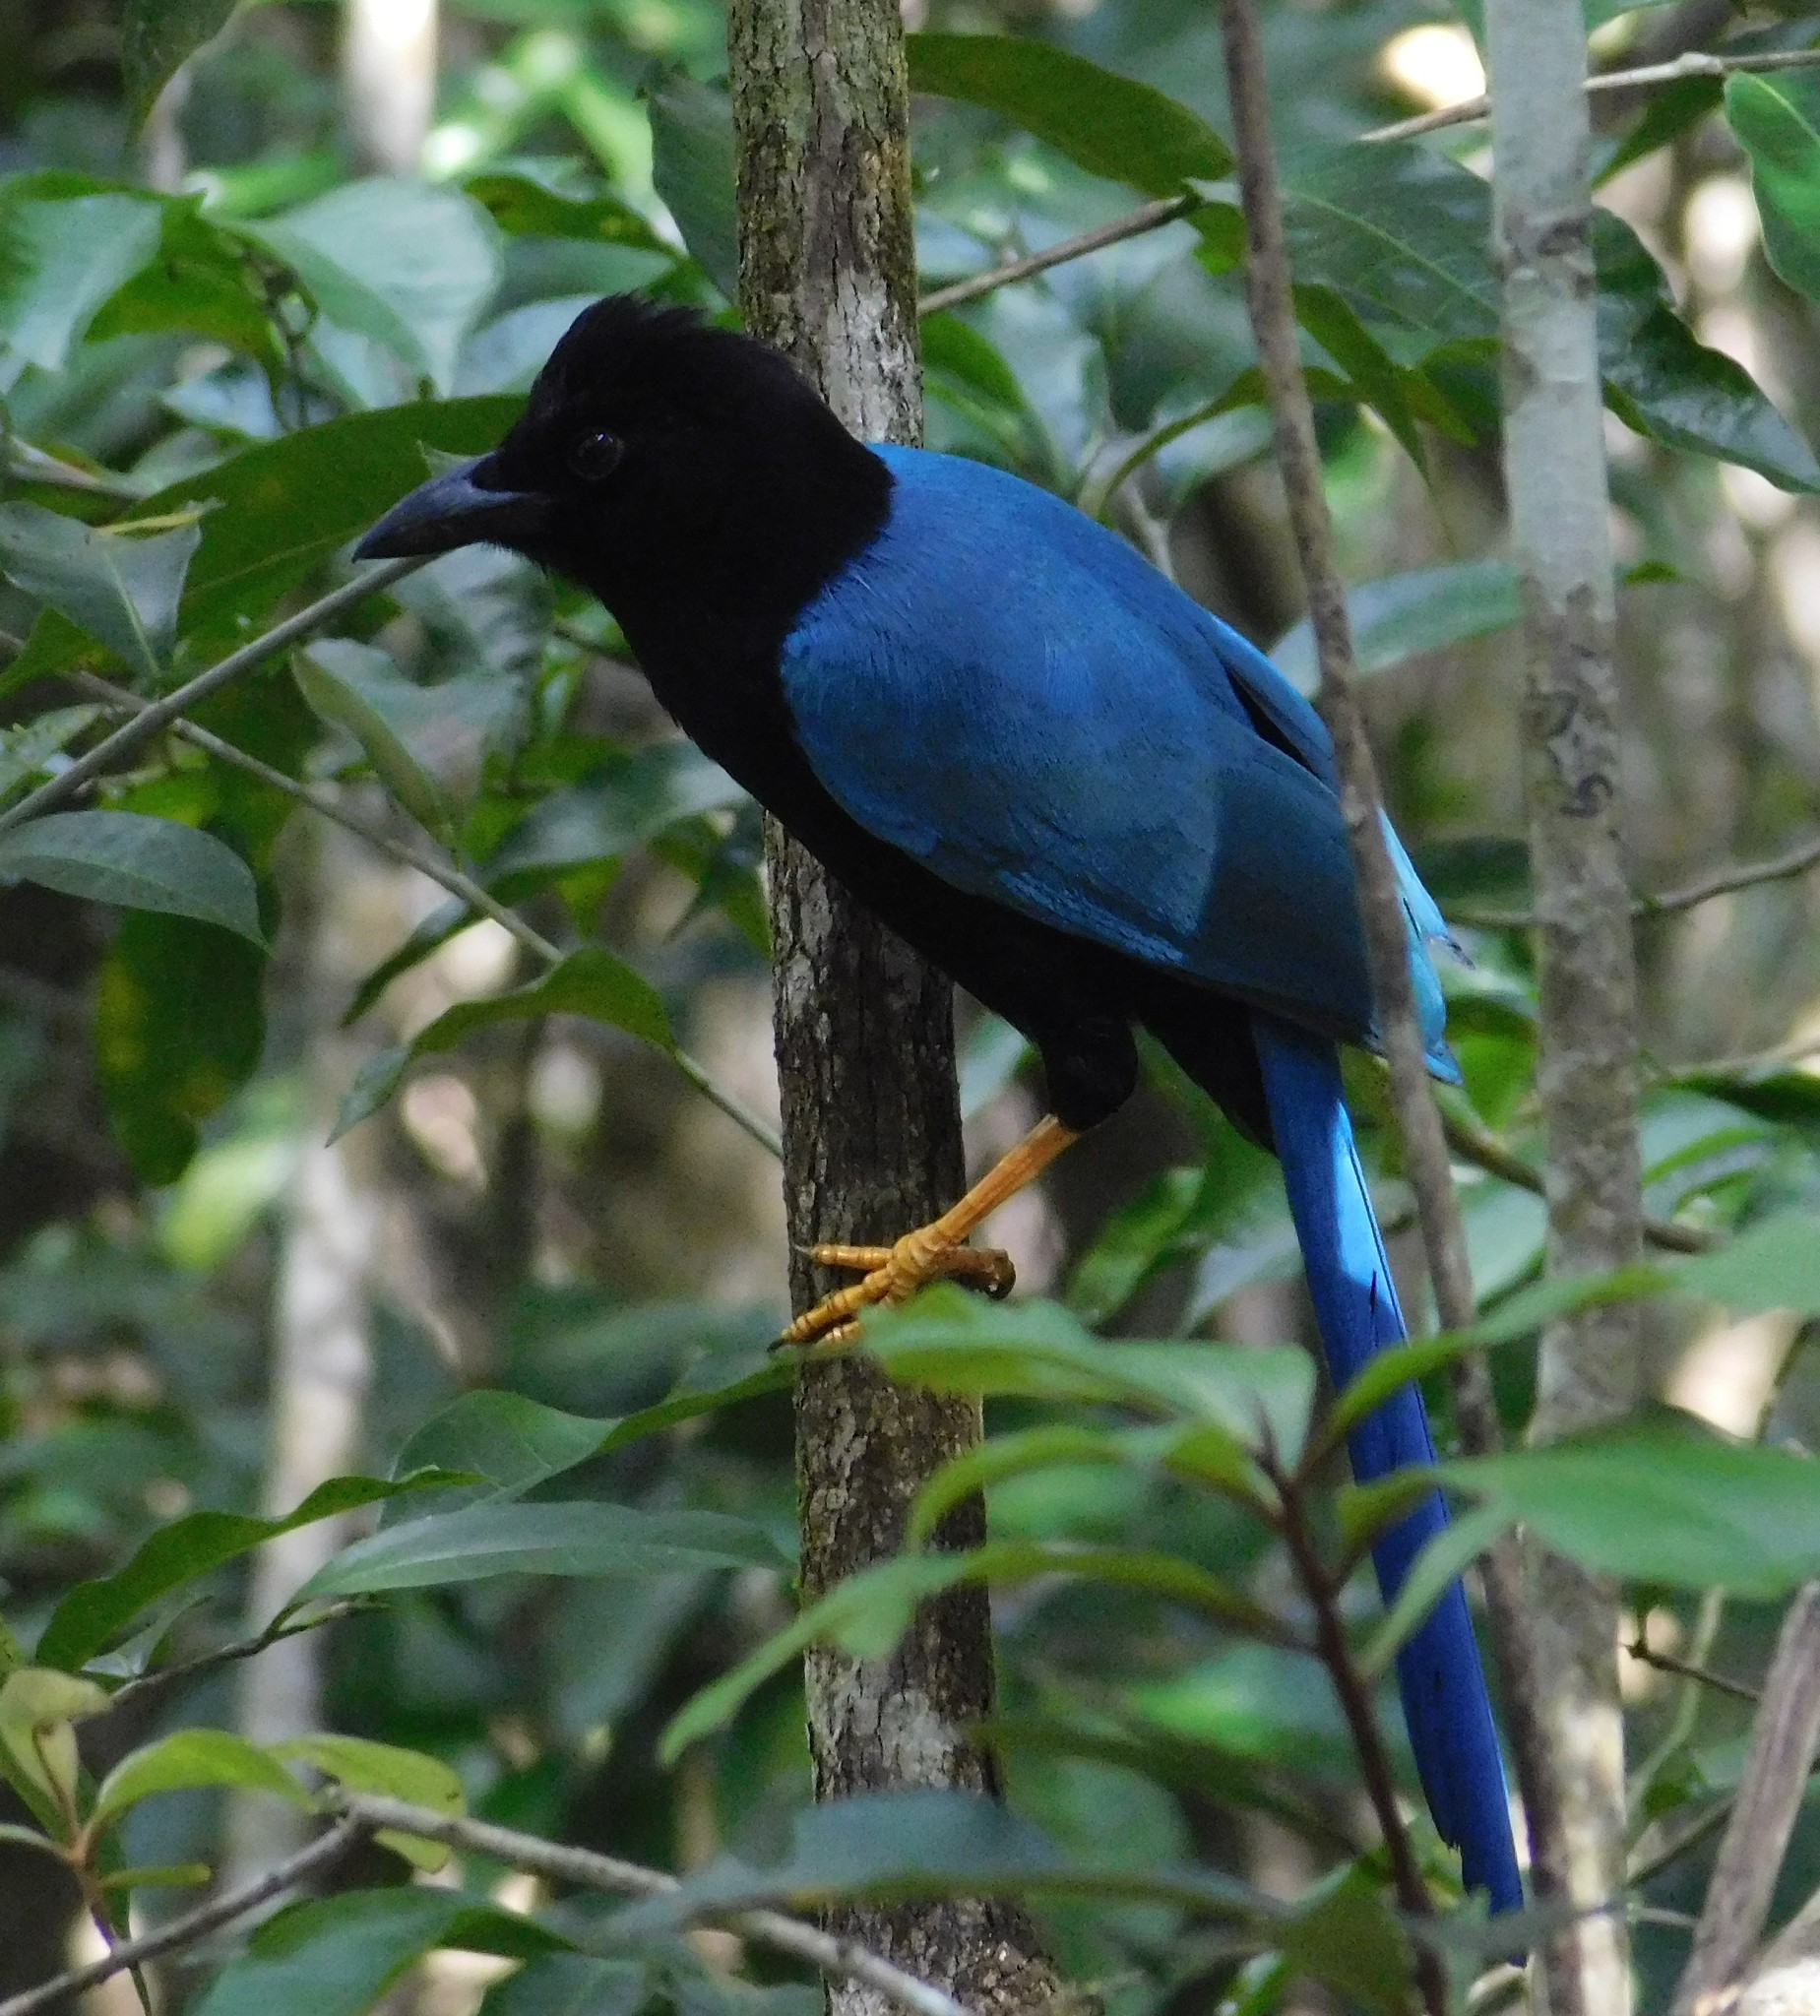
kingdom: Animalia
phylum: Chordata
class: Aves
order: Passeriformes
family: Corvidae
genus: Cyanocorax
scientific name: Cyanocorax yucatanicus
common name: Yucatan jay
